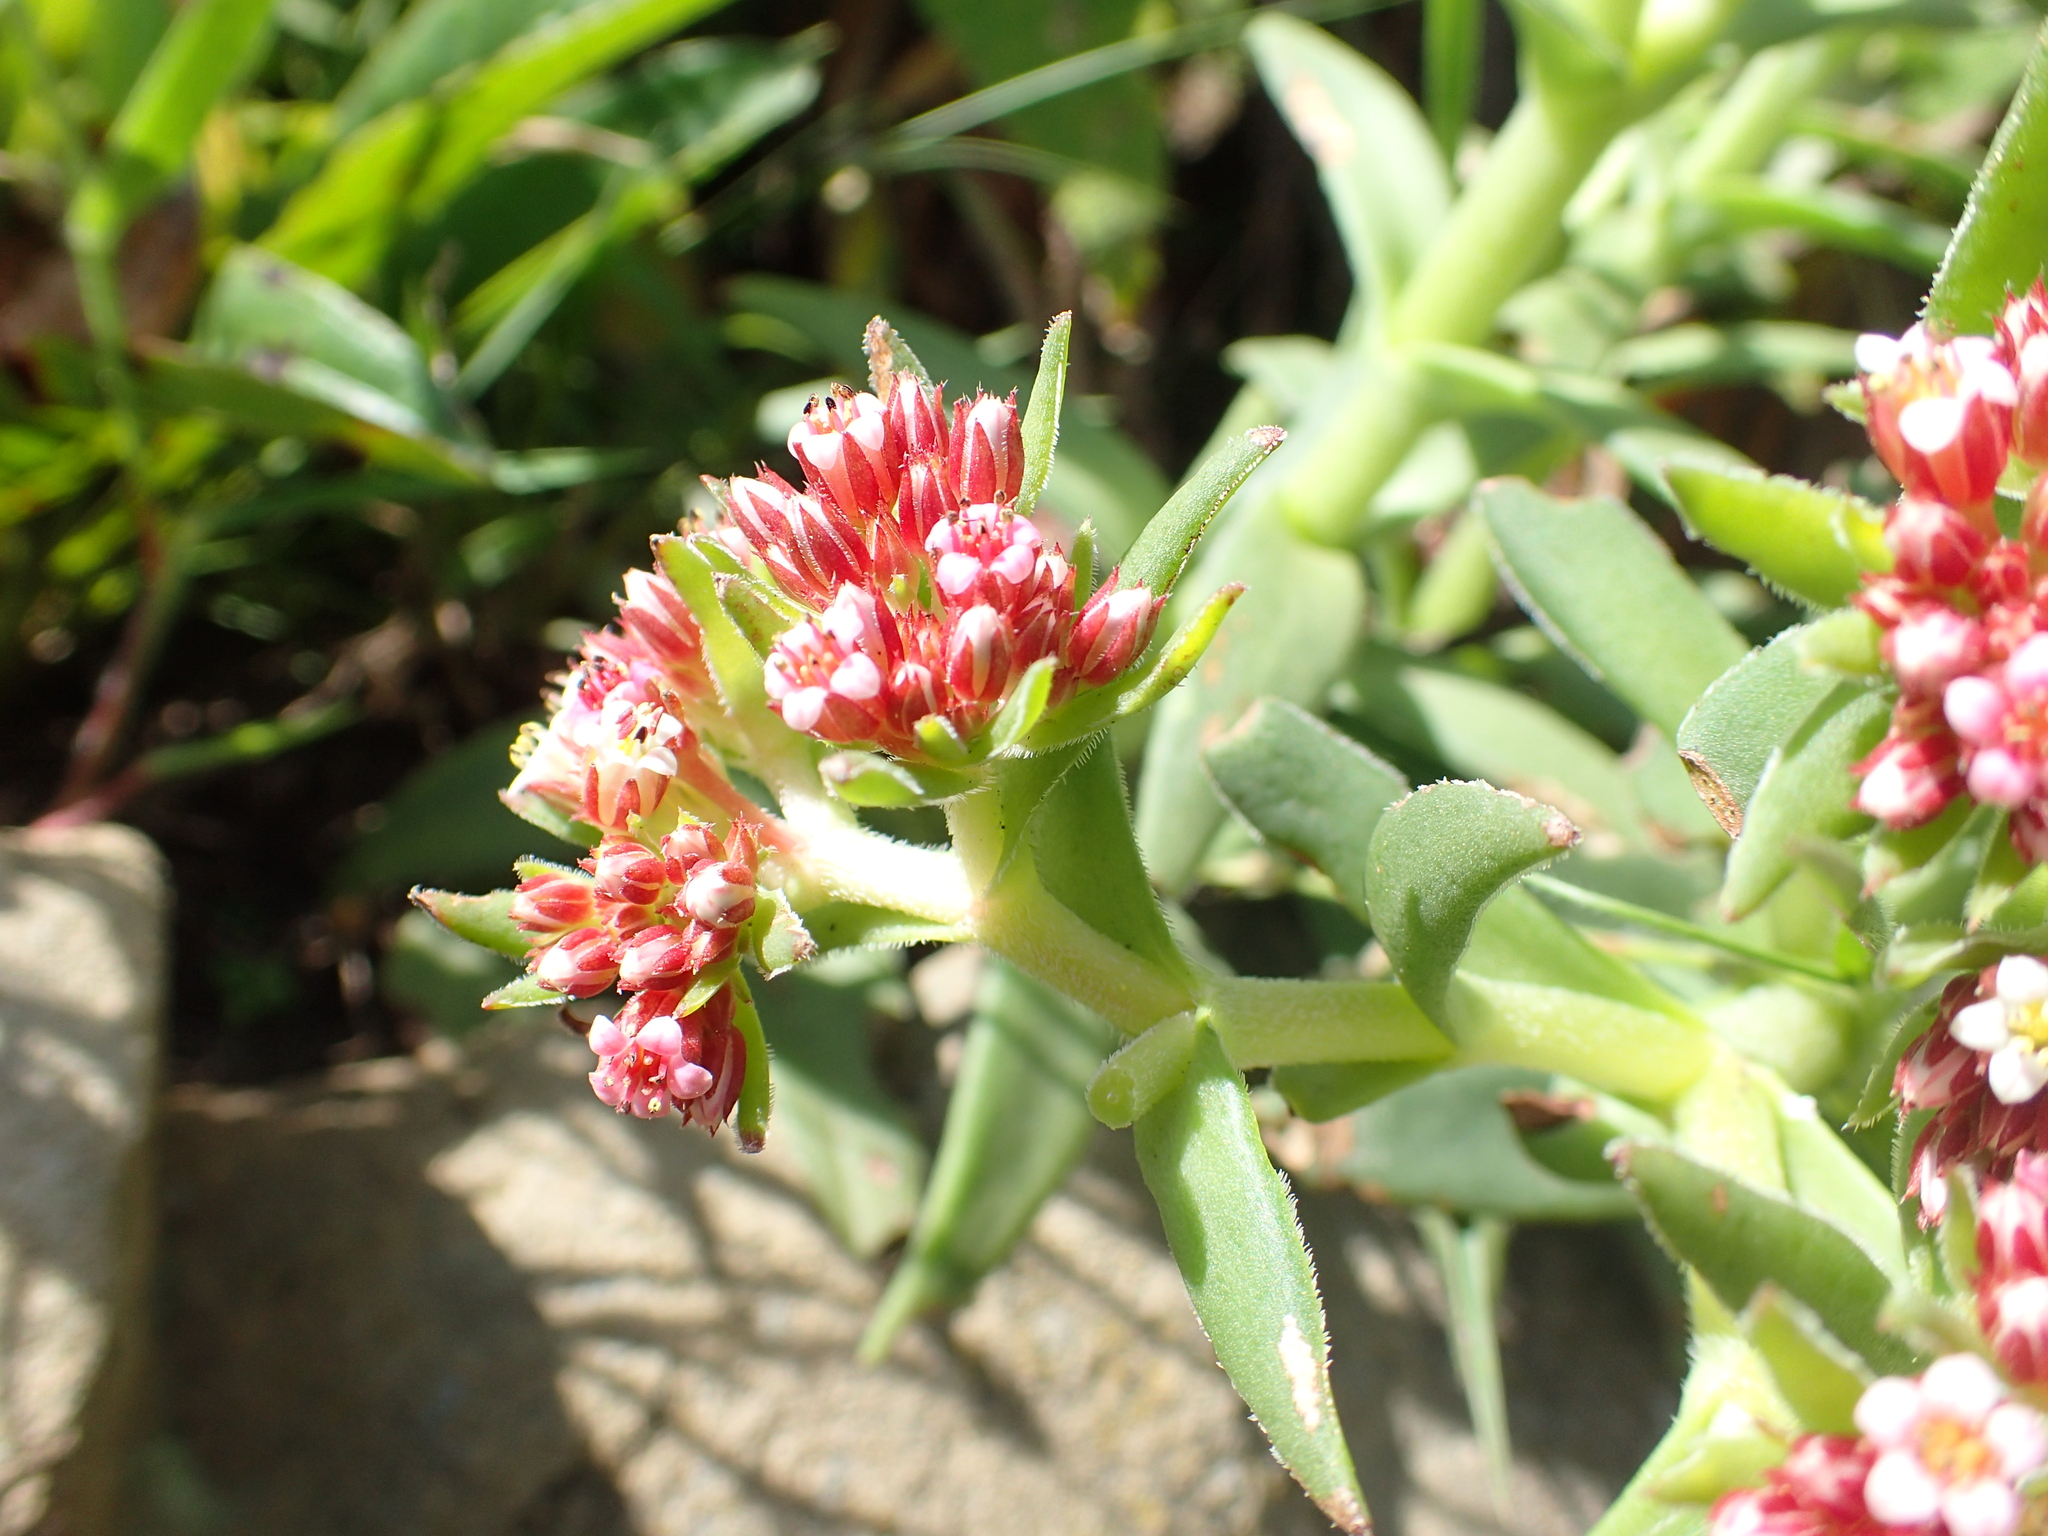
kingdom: Plantae
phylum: Tracheophyta
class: Magnoliopsida
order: Saxifragales
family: Crassulaceae
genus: Crassula
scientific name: Crassula alba
